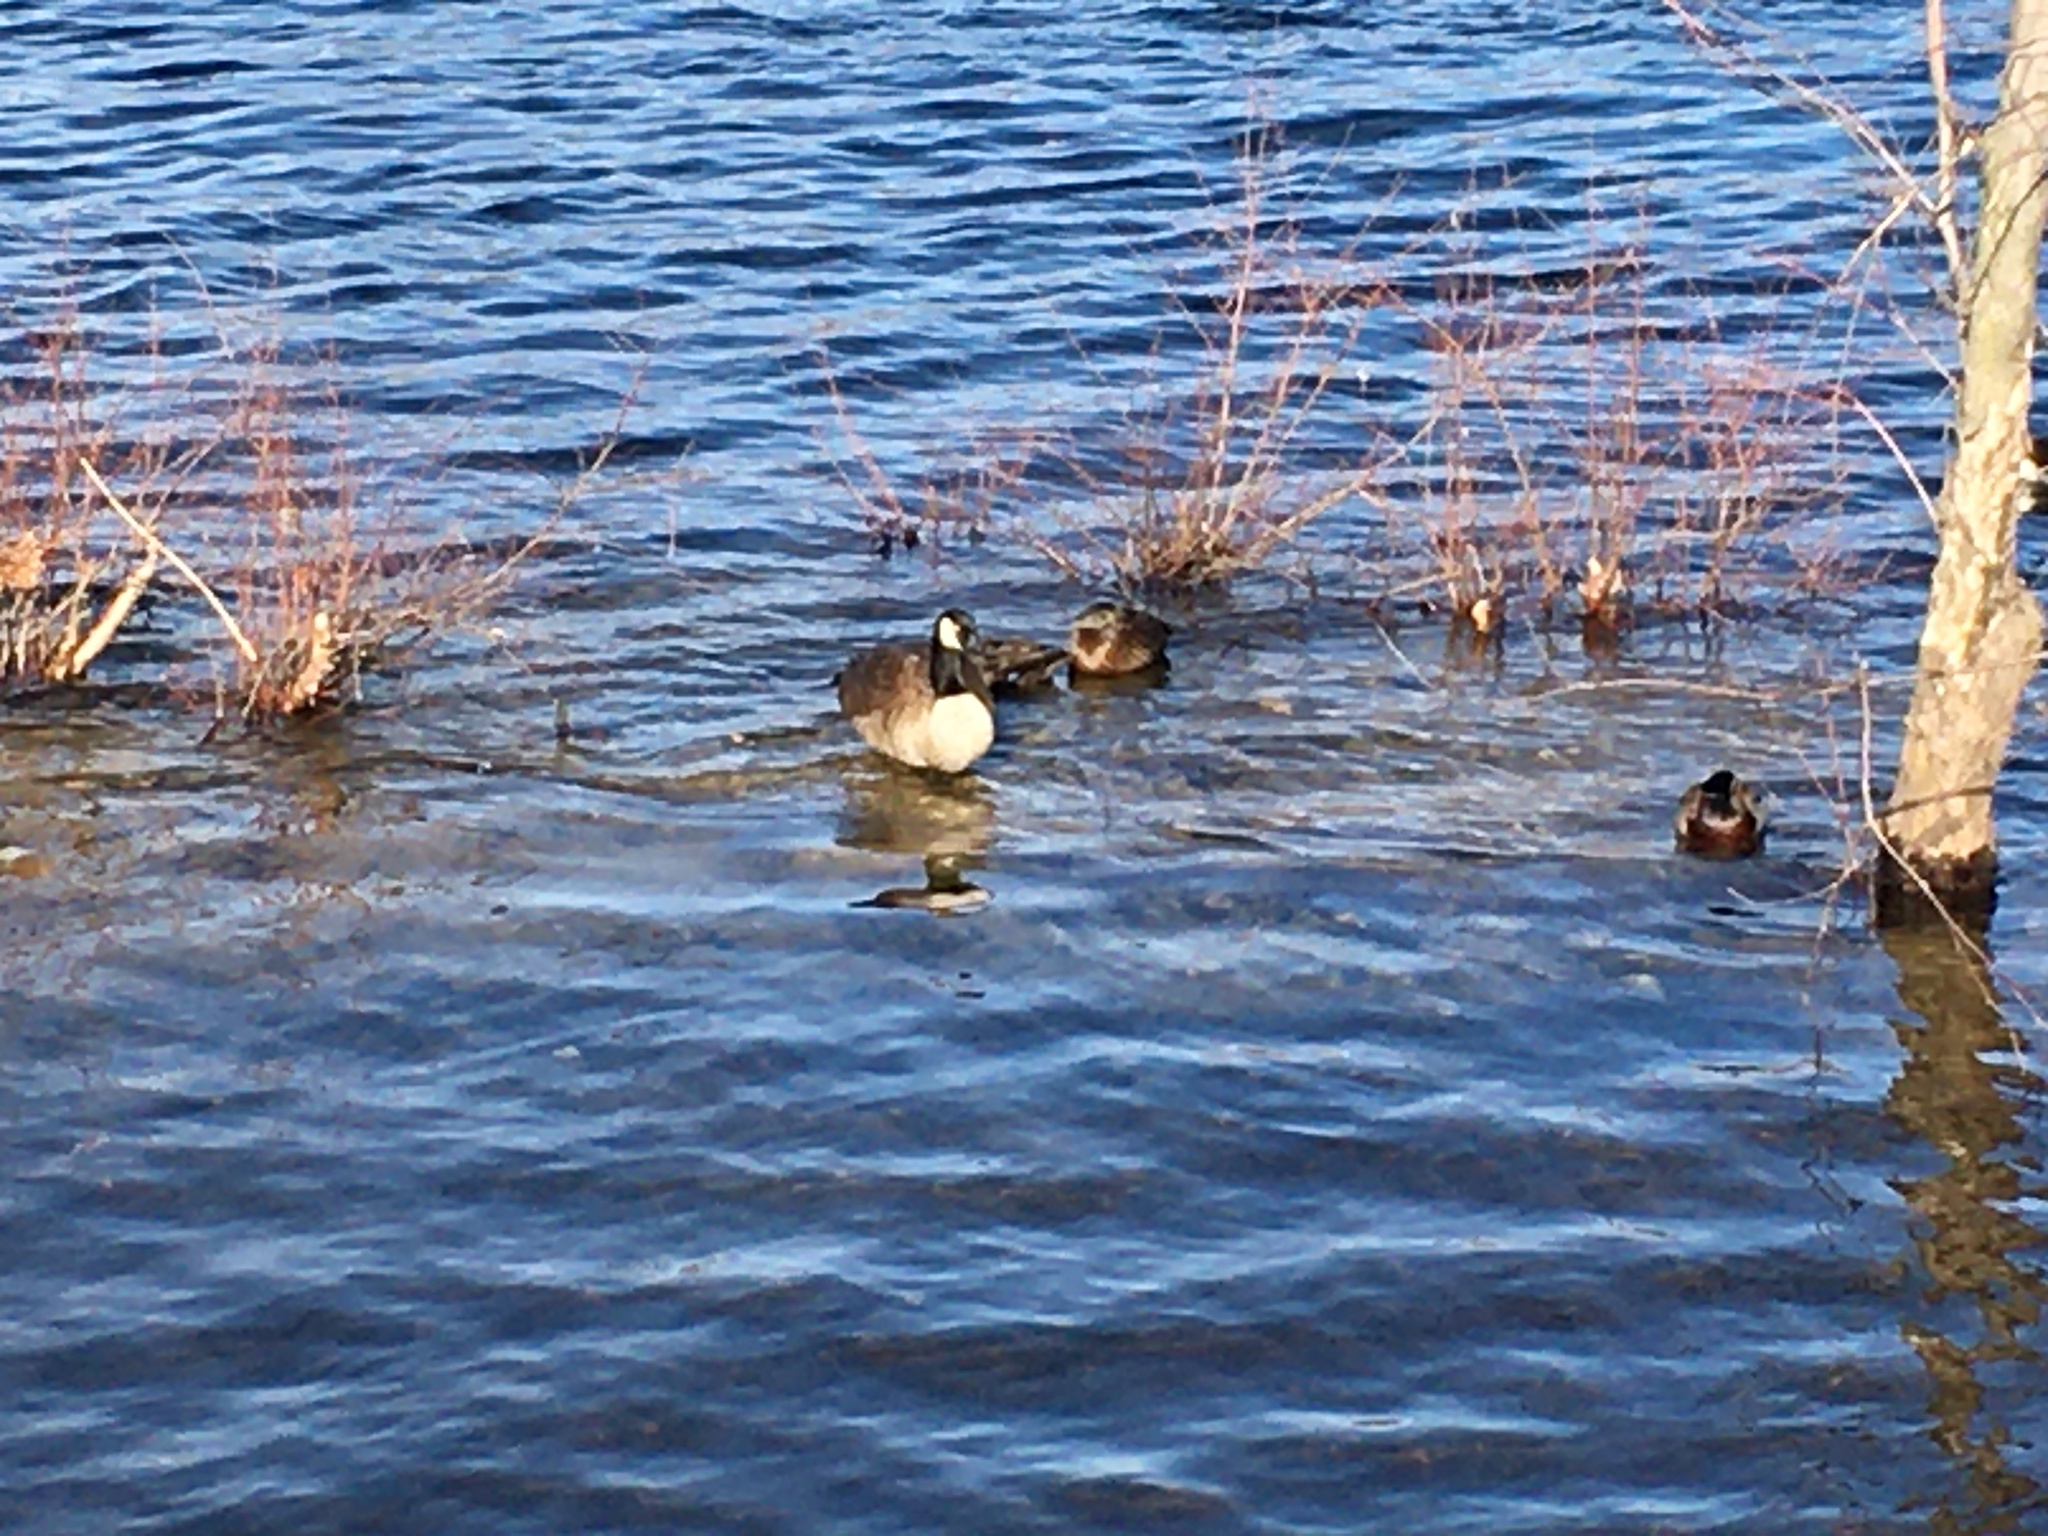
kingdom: Animalia
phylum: Chordata
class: Aves
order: Anseriformes
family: Anatidae
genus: Branta
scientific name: Branta canadensis
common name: Canada goose
